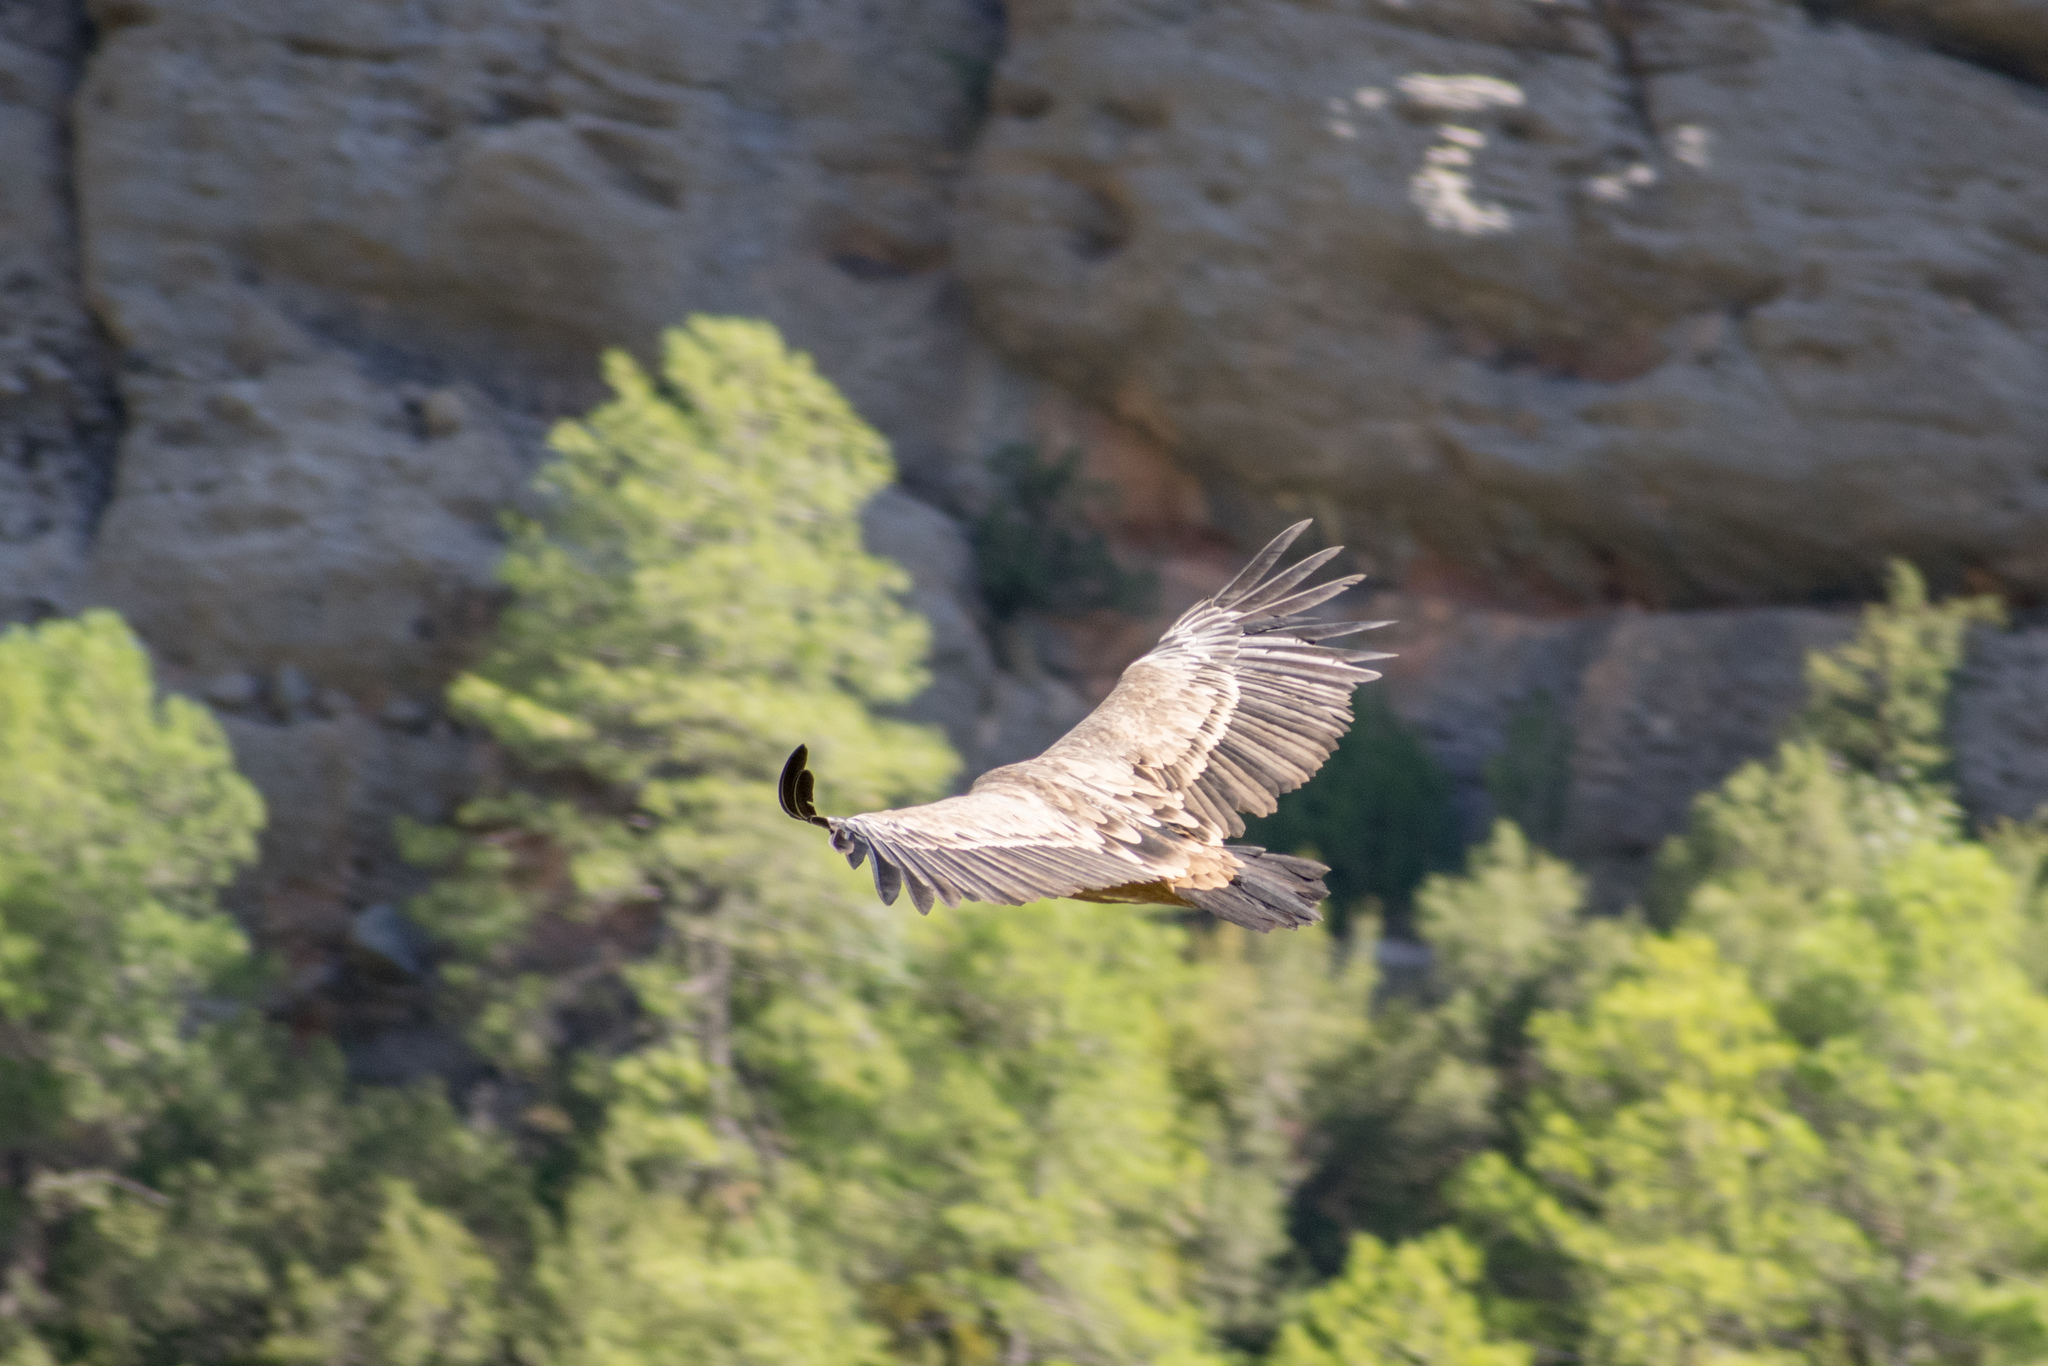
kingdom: Animalia
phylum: Chordata
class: Aves
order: Accipitriformes
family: Accipitridae
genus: Gyps
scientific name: Gyps fulvus
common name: Griffon vulture
